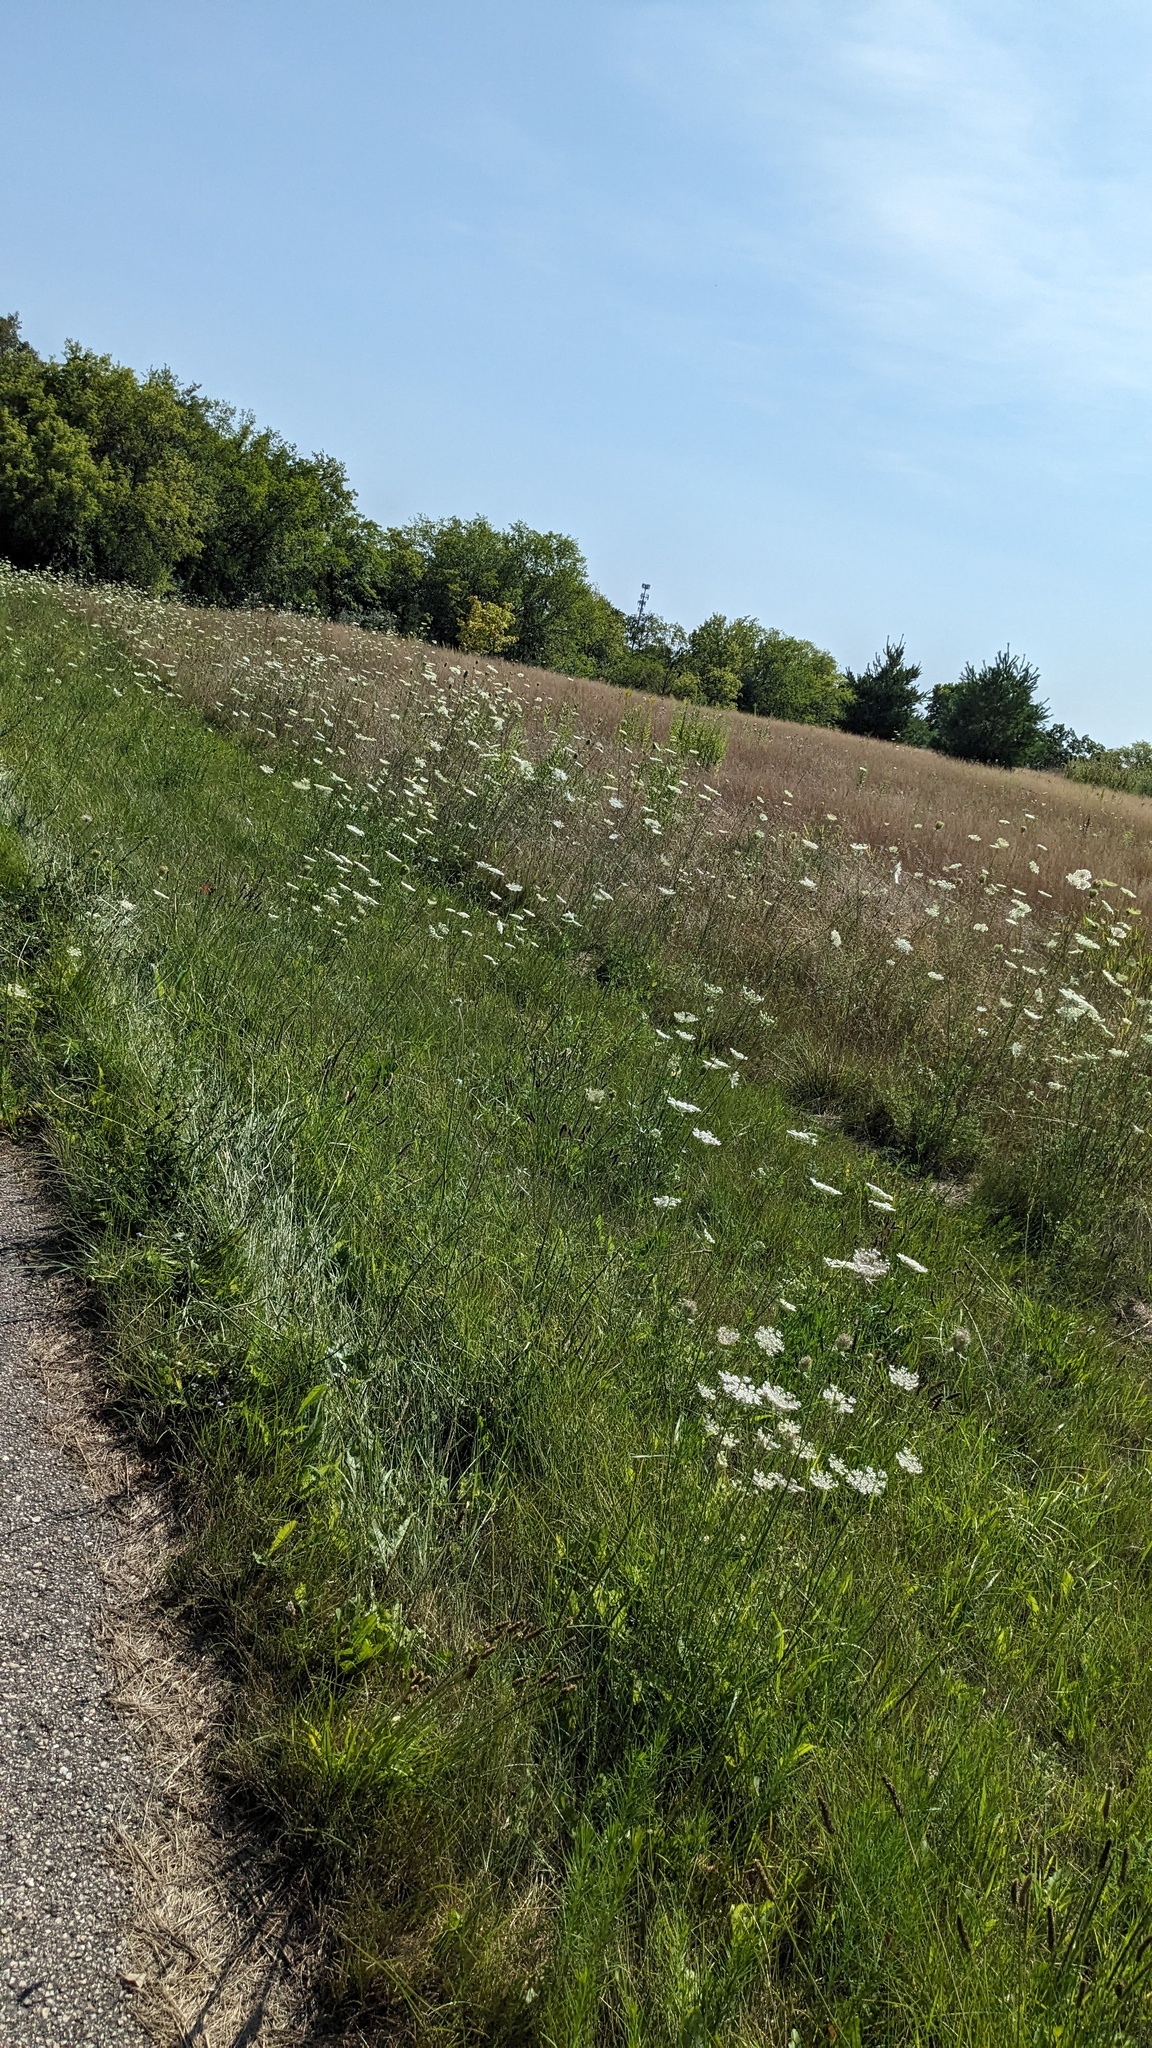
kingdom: Plantae
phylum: Tracheophyta
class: Magnoliopsida
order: Apiales
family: Apiaceae
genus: Daucus
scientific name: Daucus carota
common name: Wild carrot
